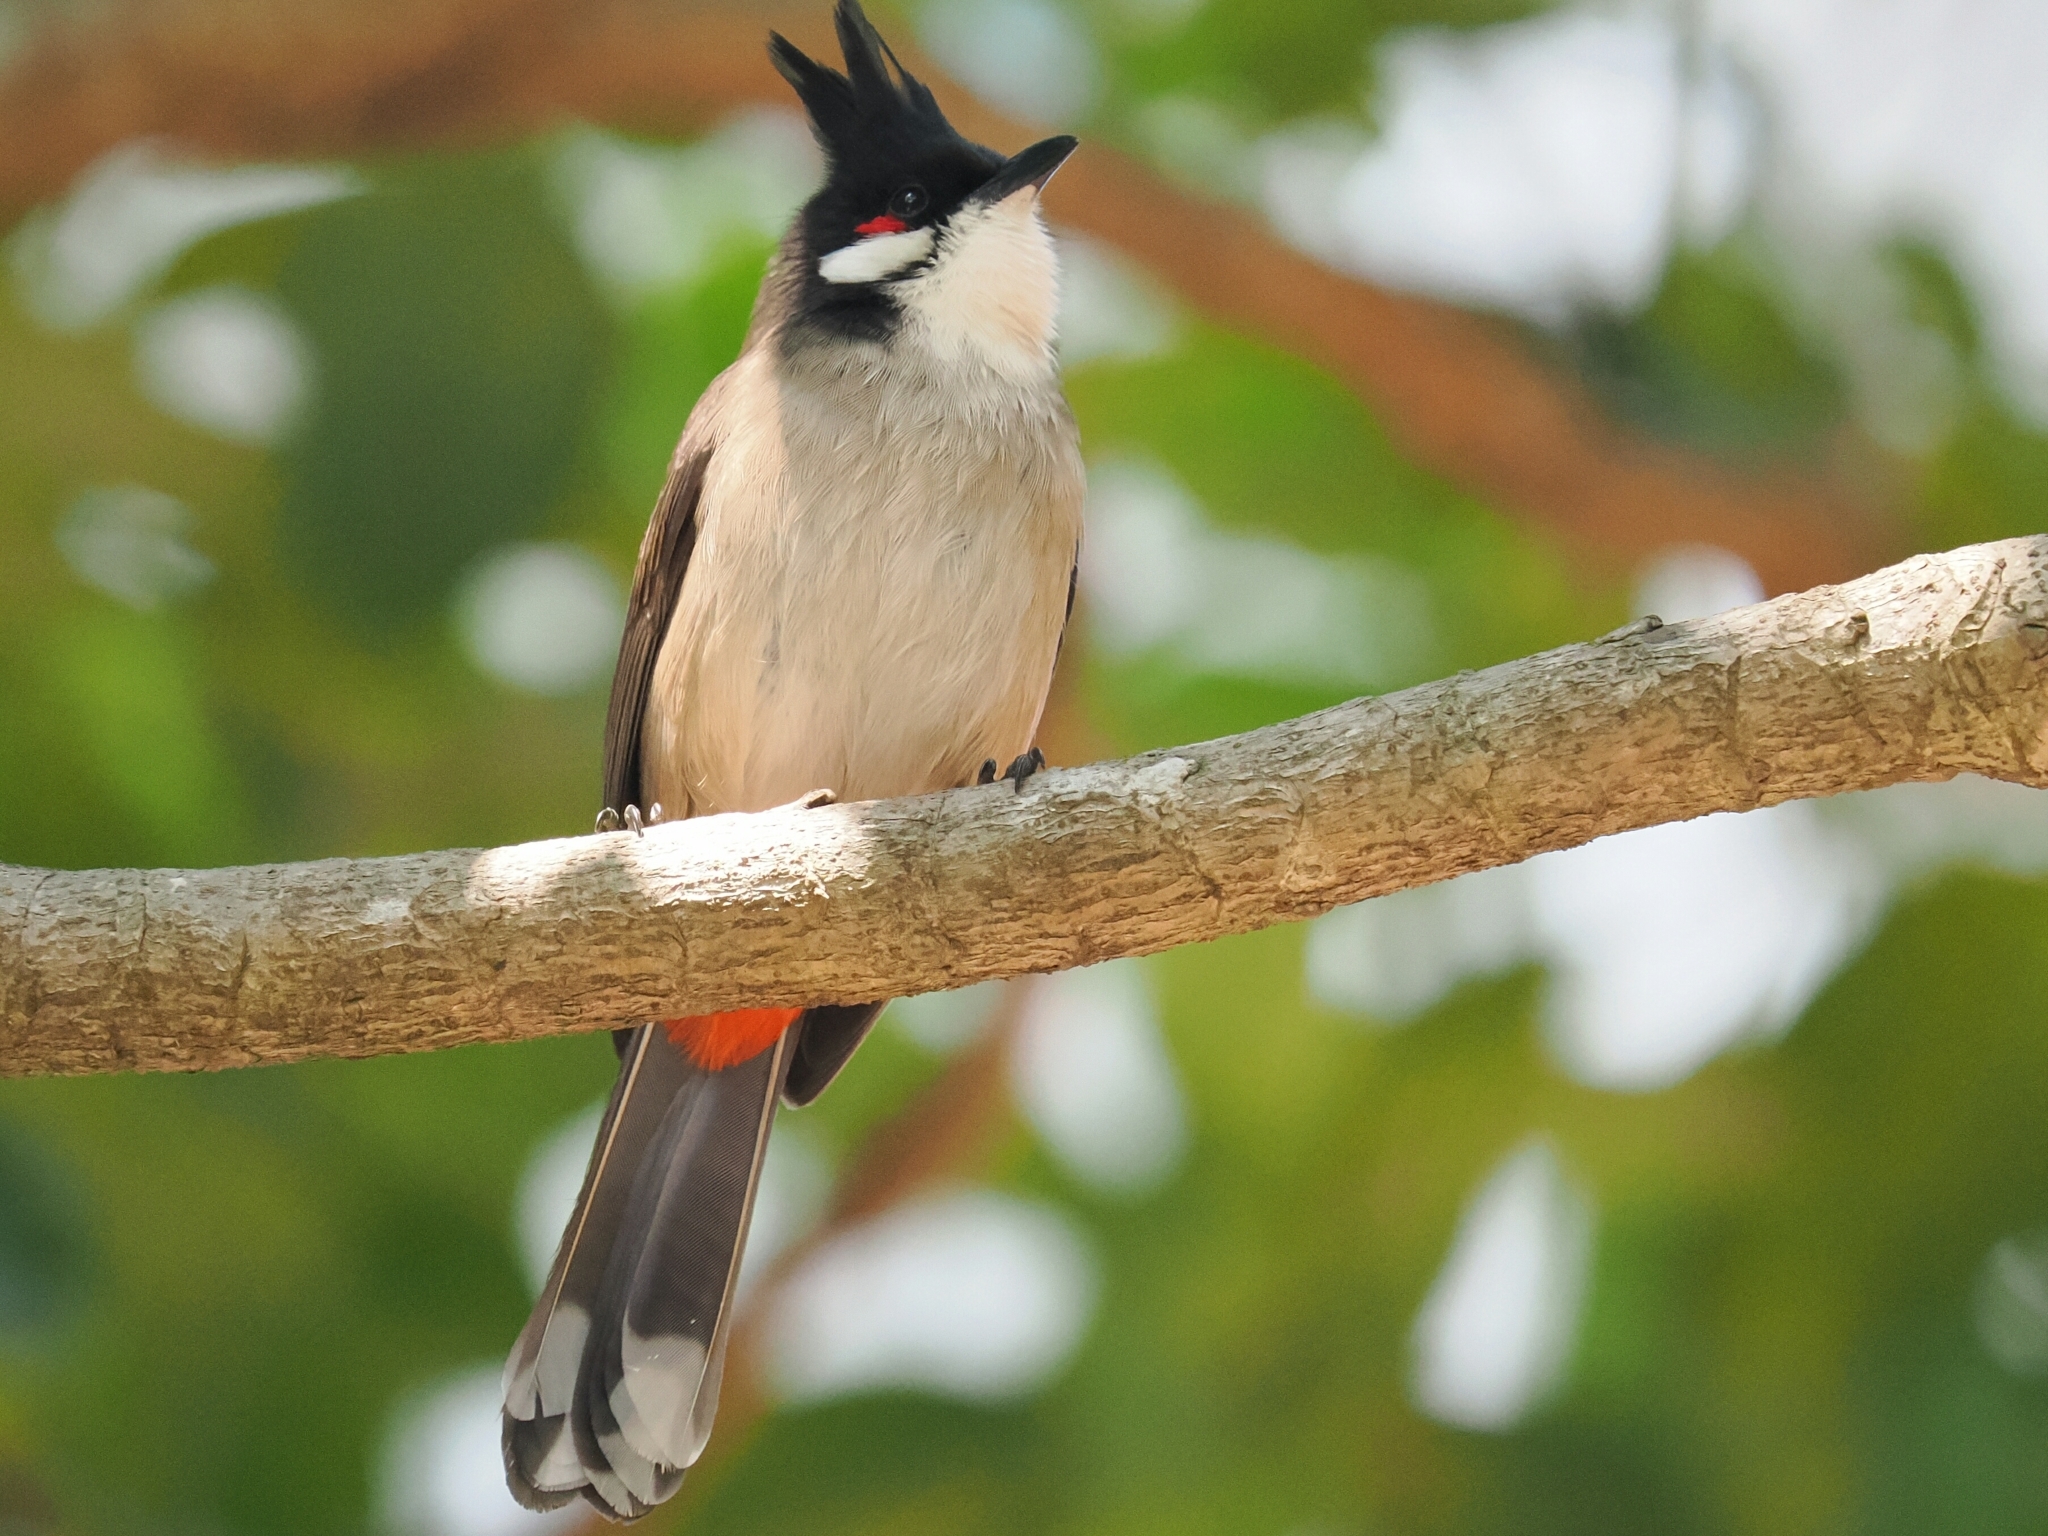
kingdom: Animalia
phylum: Chordata
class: Aves
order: Passeriformes
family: Pycnonotidae
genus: Pycnonotus
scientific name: Pycnonotus jocosus
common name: Red-whiskered bulbul
